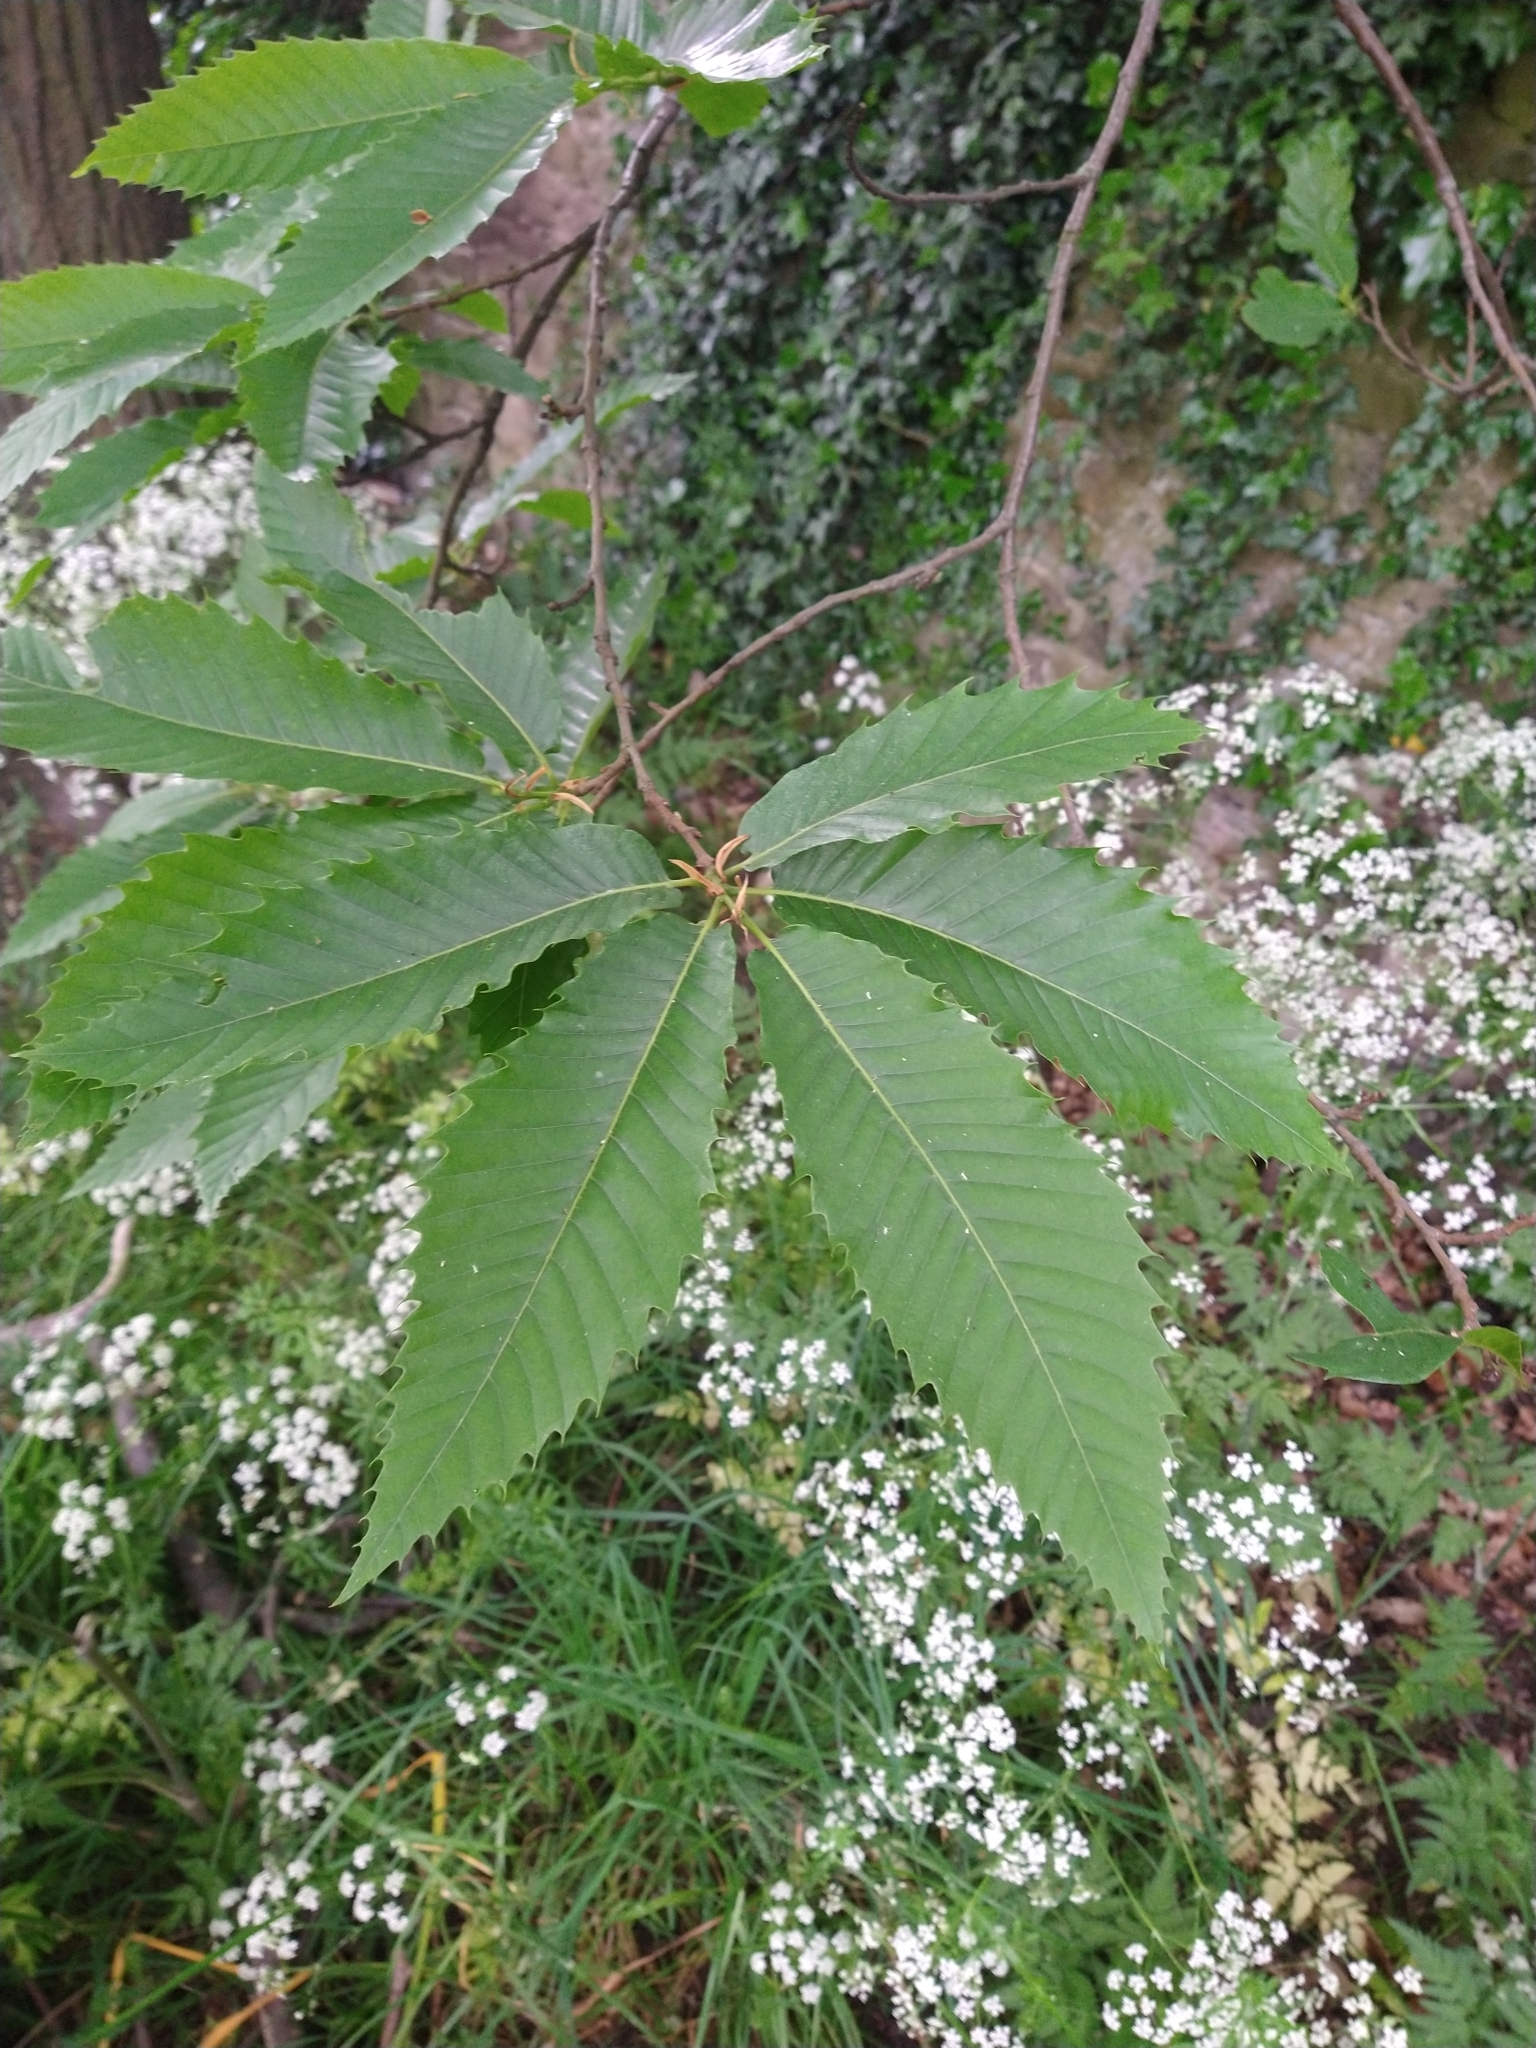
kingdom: Plantae
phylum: Tracheophyta
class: Magnoliopsida
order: Fagales
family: Fagaceae
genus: Castanea
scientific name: Castanea sativa
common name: Sweet chestnut
